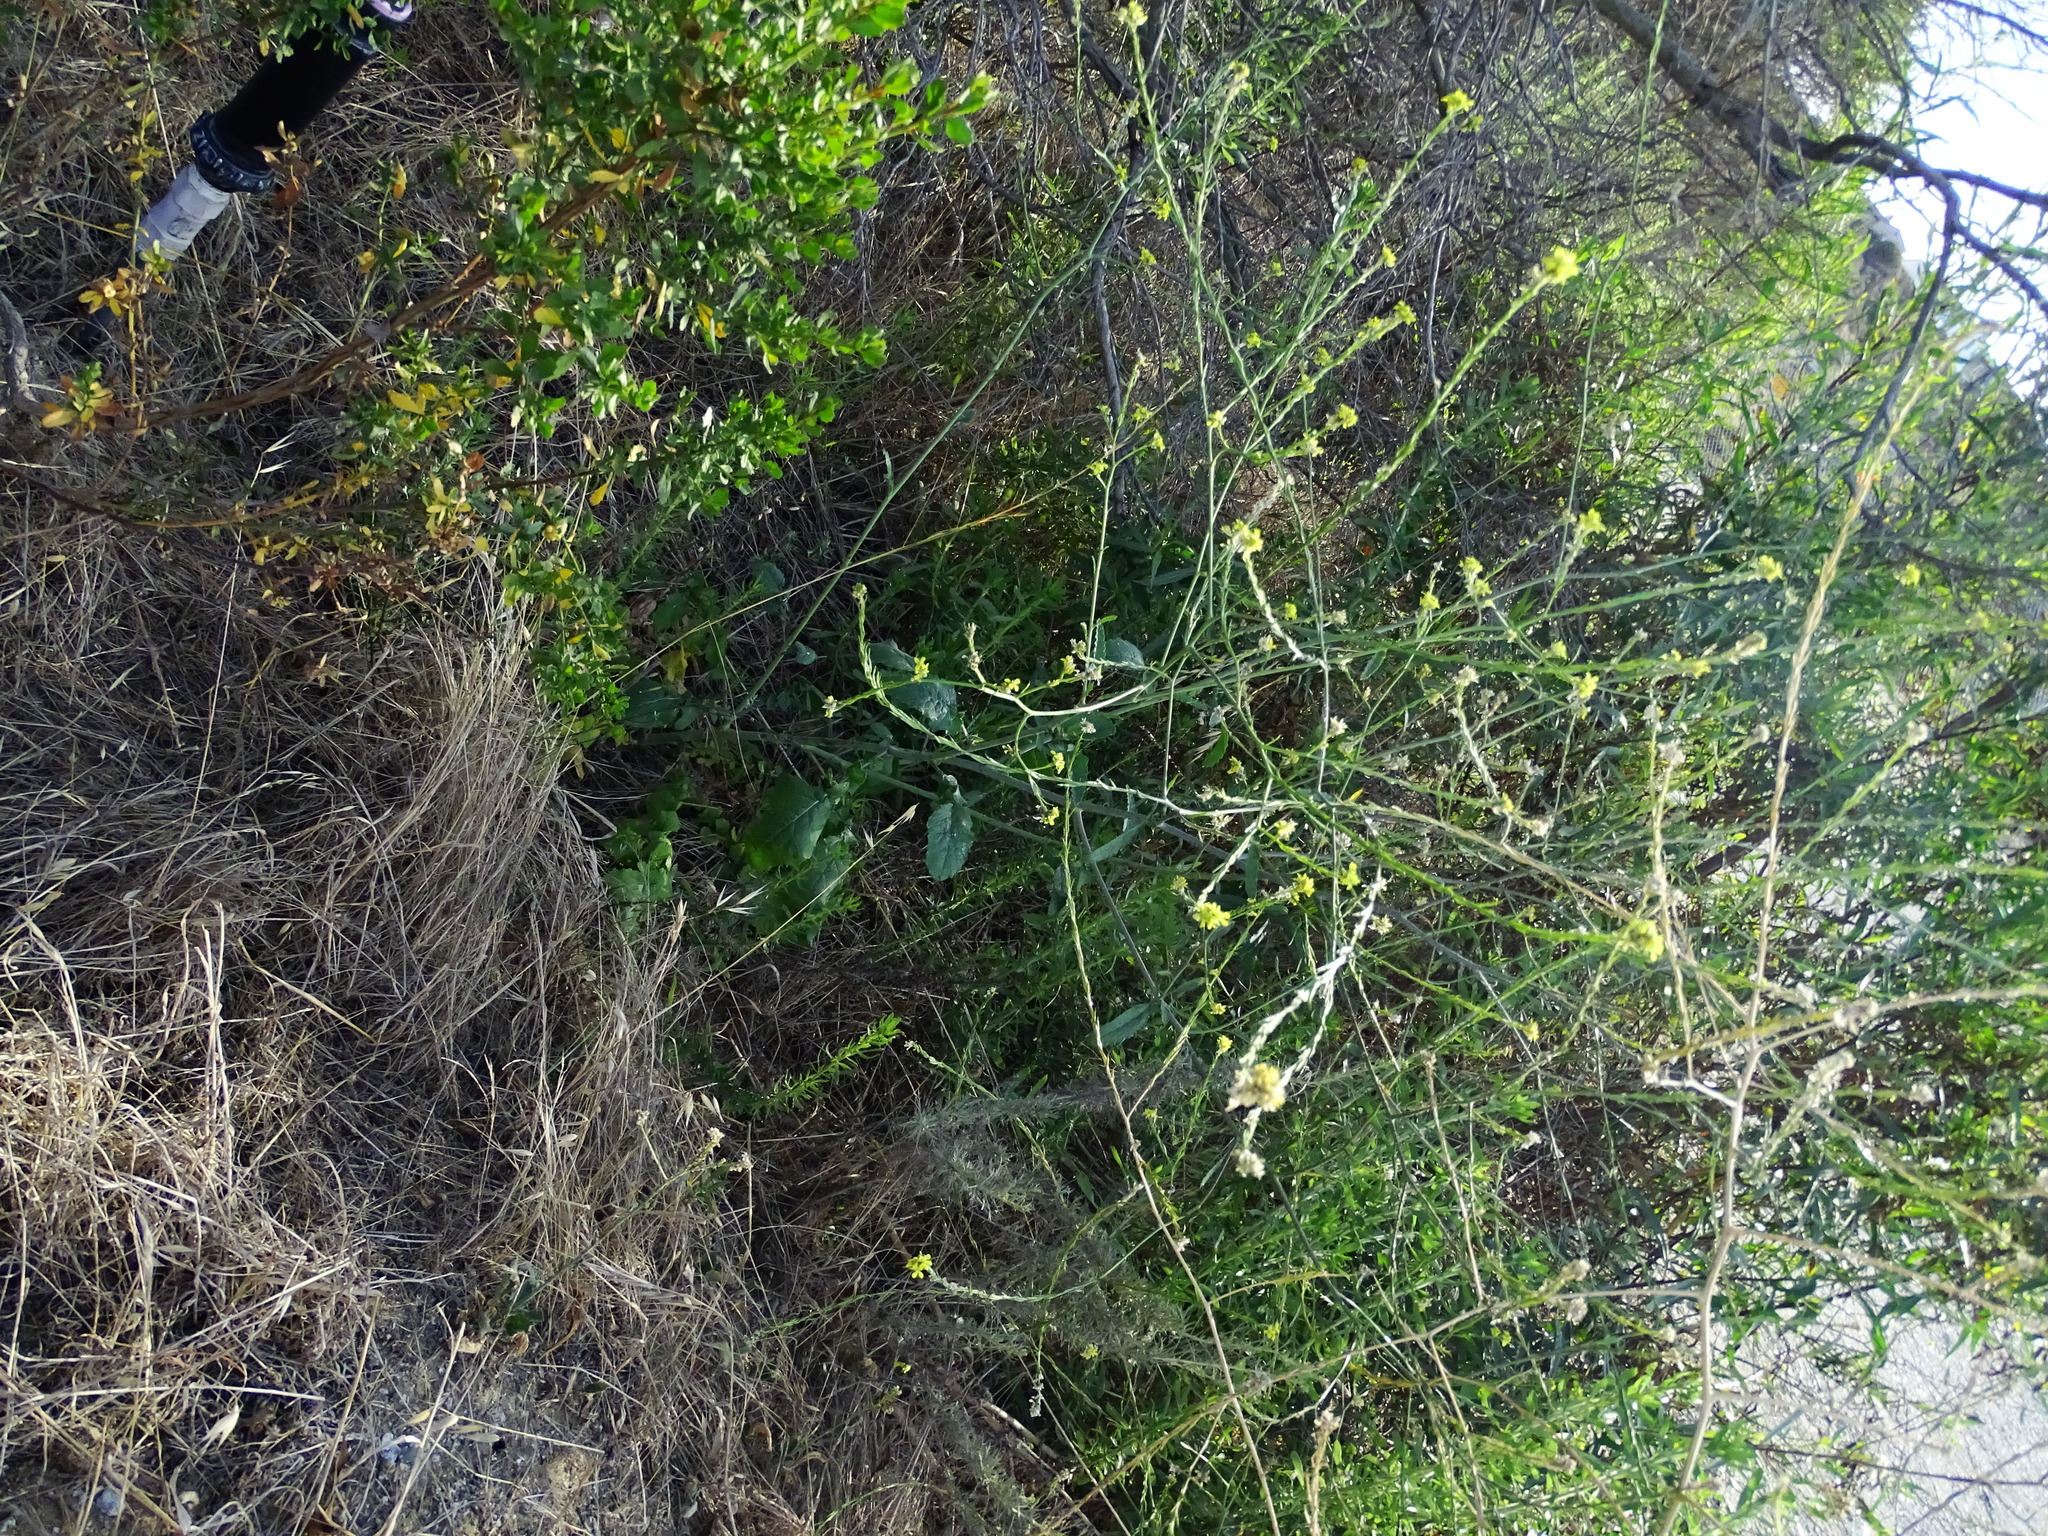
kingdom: Plantae
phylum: Tracheophyta
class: Magnoliopsida
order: Brassicales
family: Brassicaceae
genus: Hirschfeldia
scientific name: Hirschfeldia incana
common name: Hoary mustard
